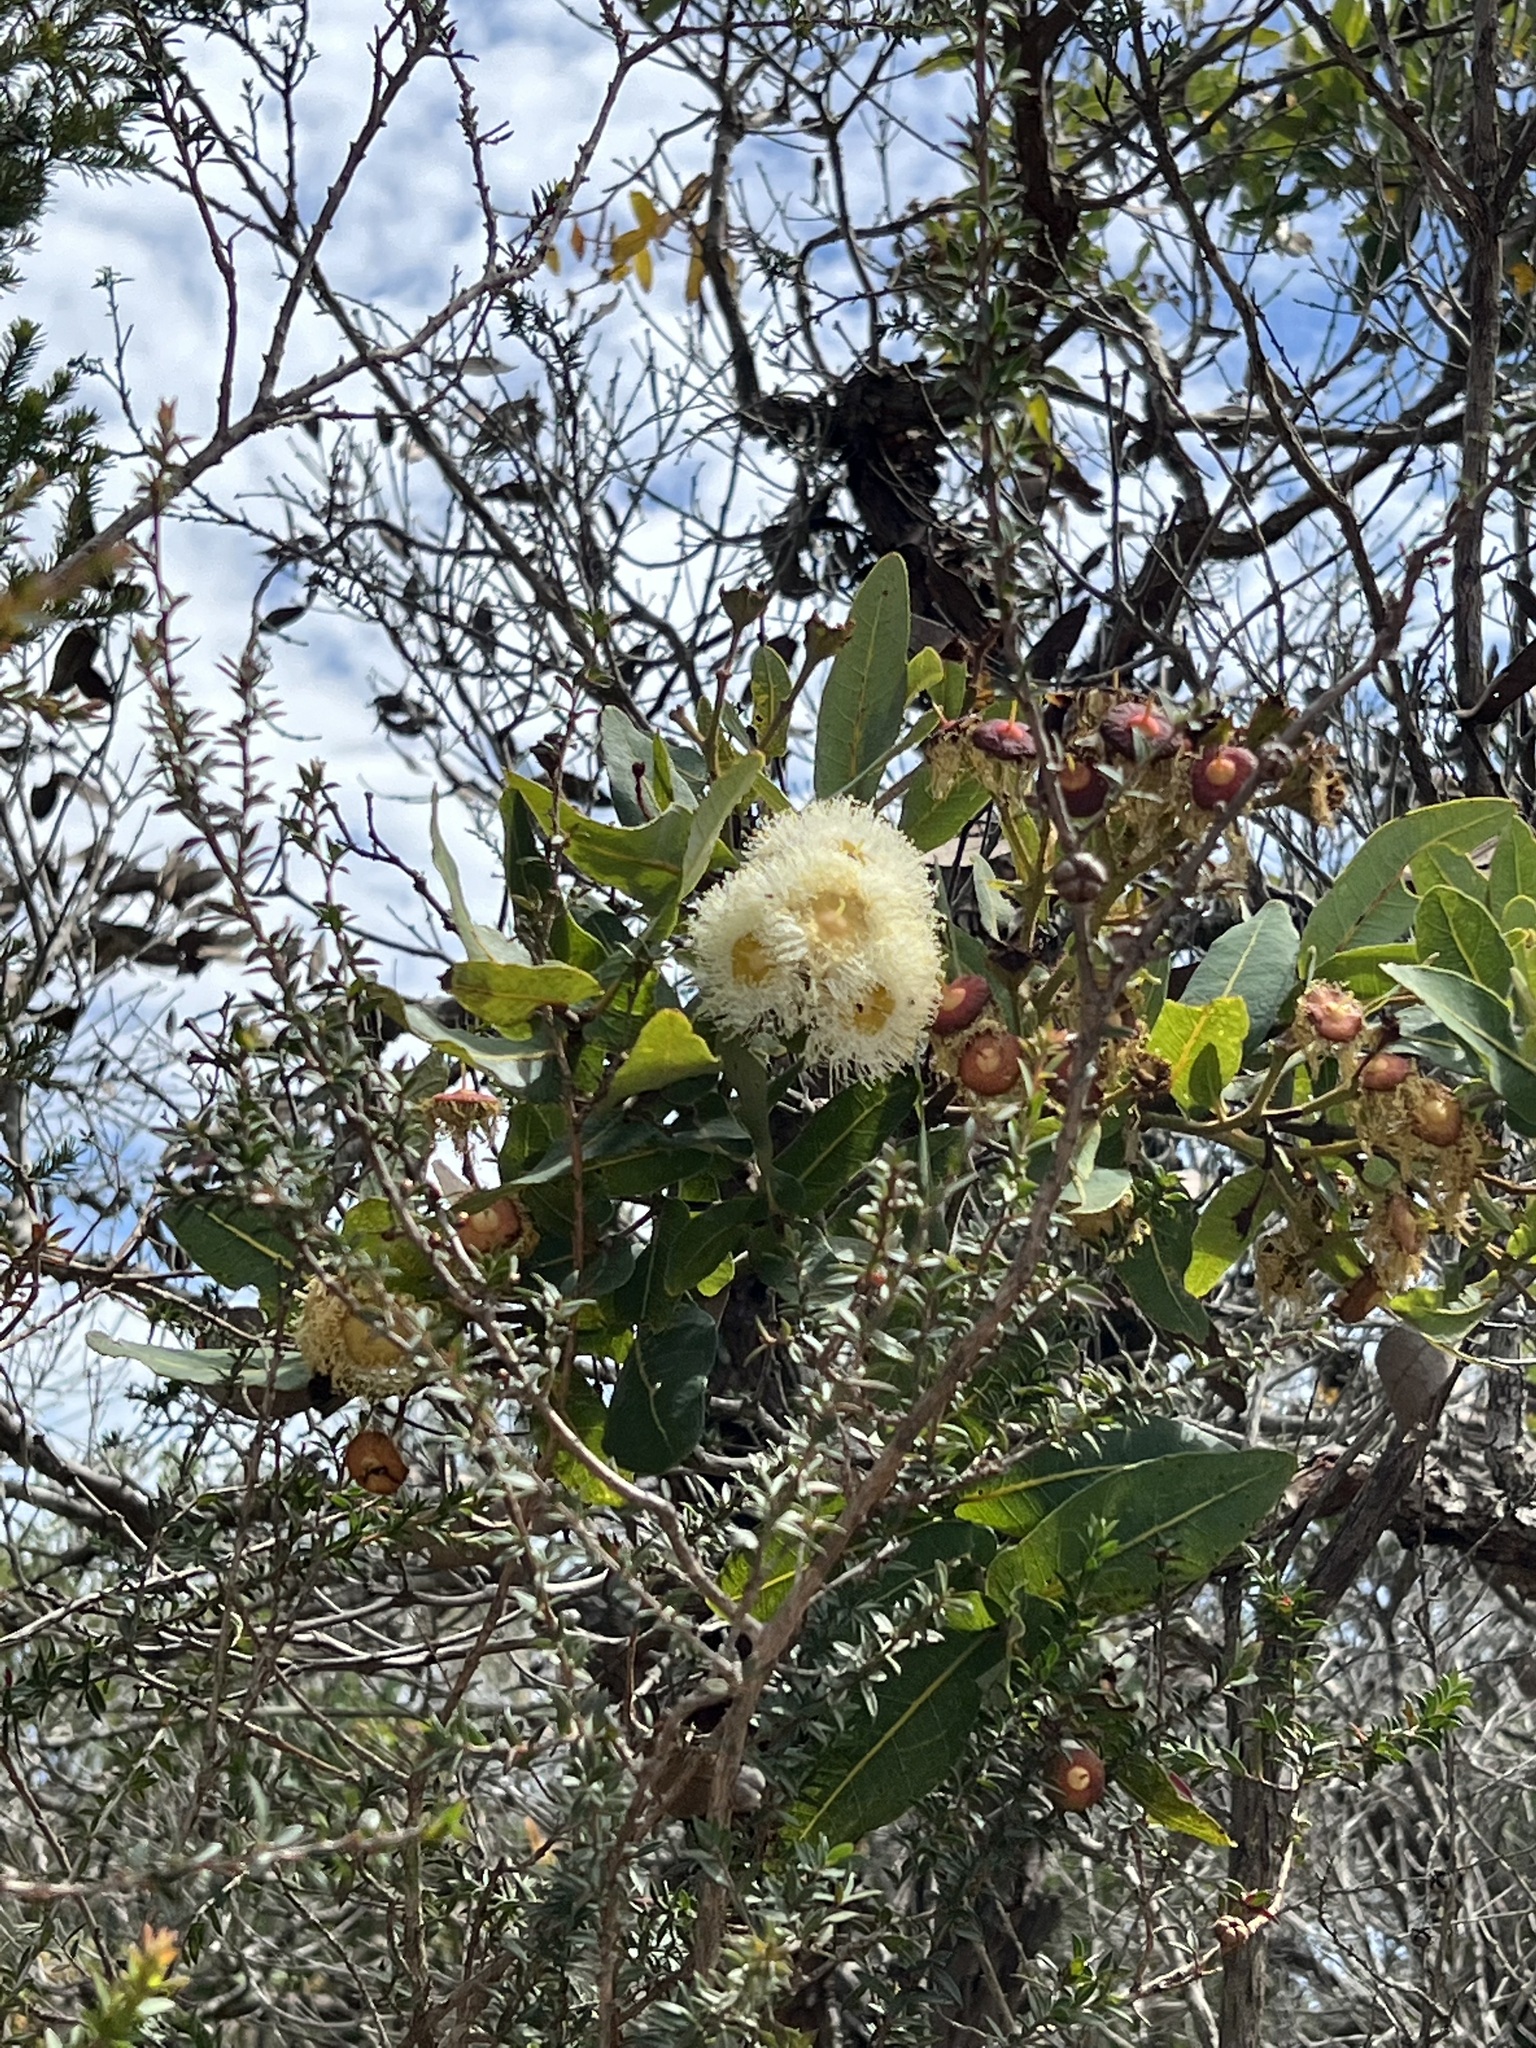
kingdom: Plantae
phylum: Tracheophyta
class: Magnoliopsida
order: Myrtales
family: Myrtaceae
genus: Angophora
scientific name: Angophora hispida
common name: Dwarf-apple
